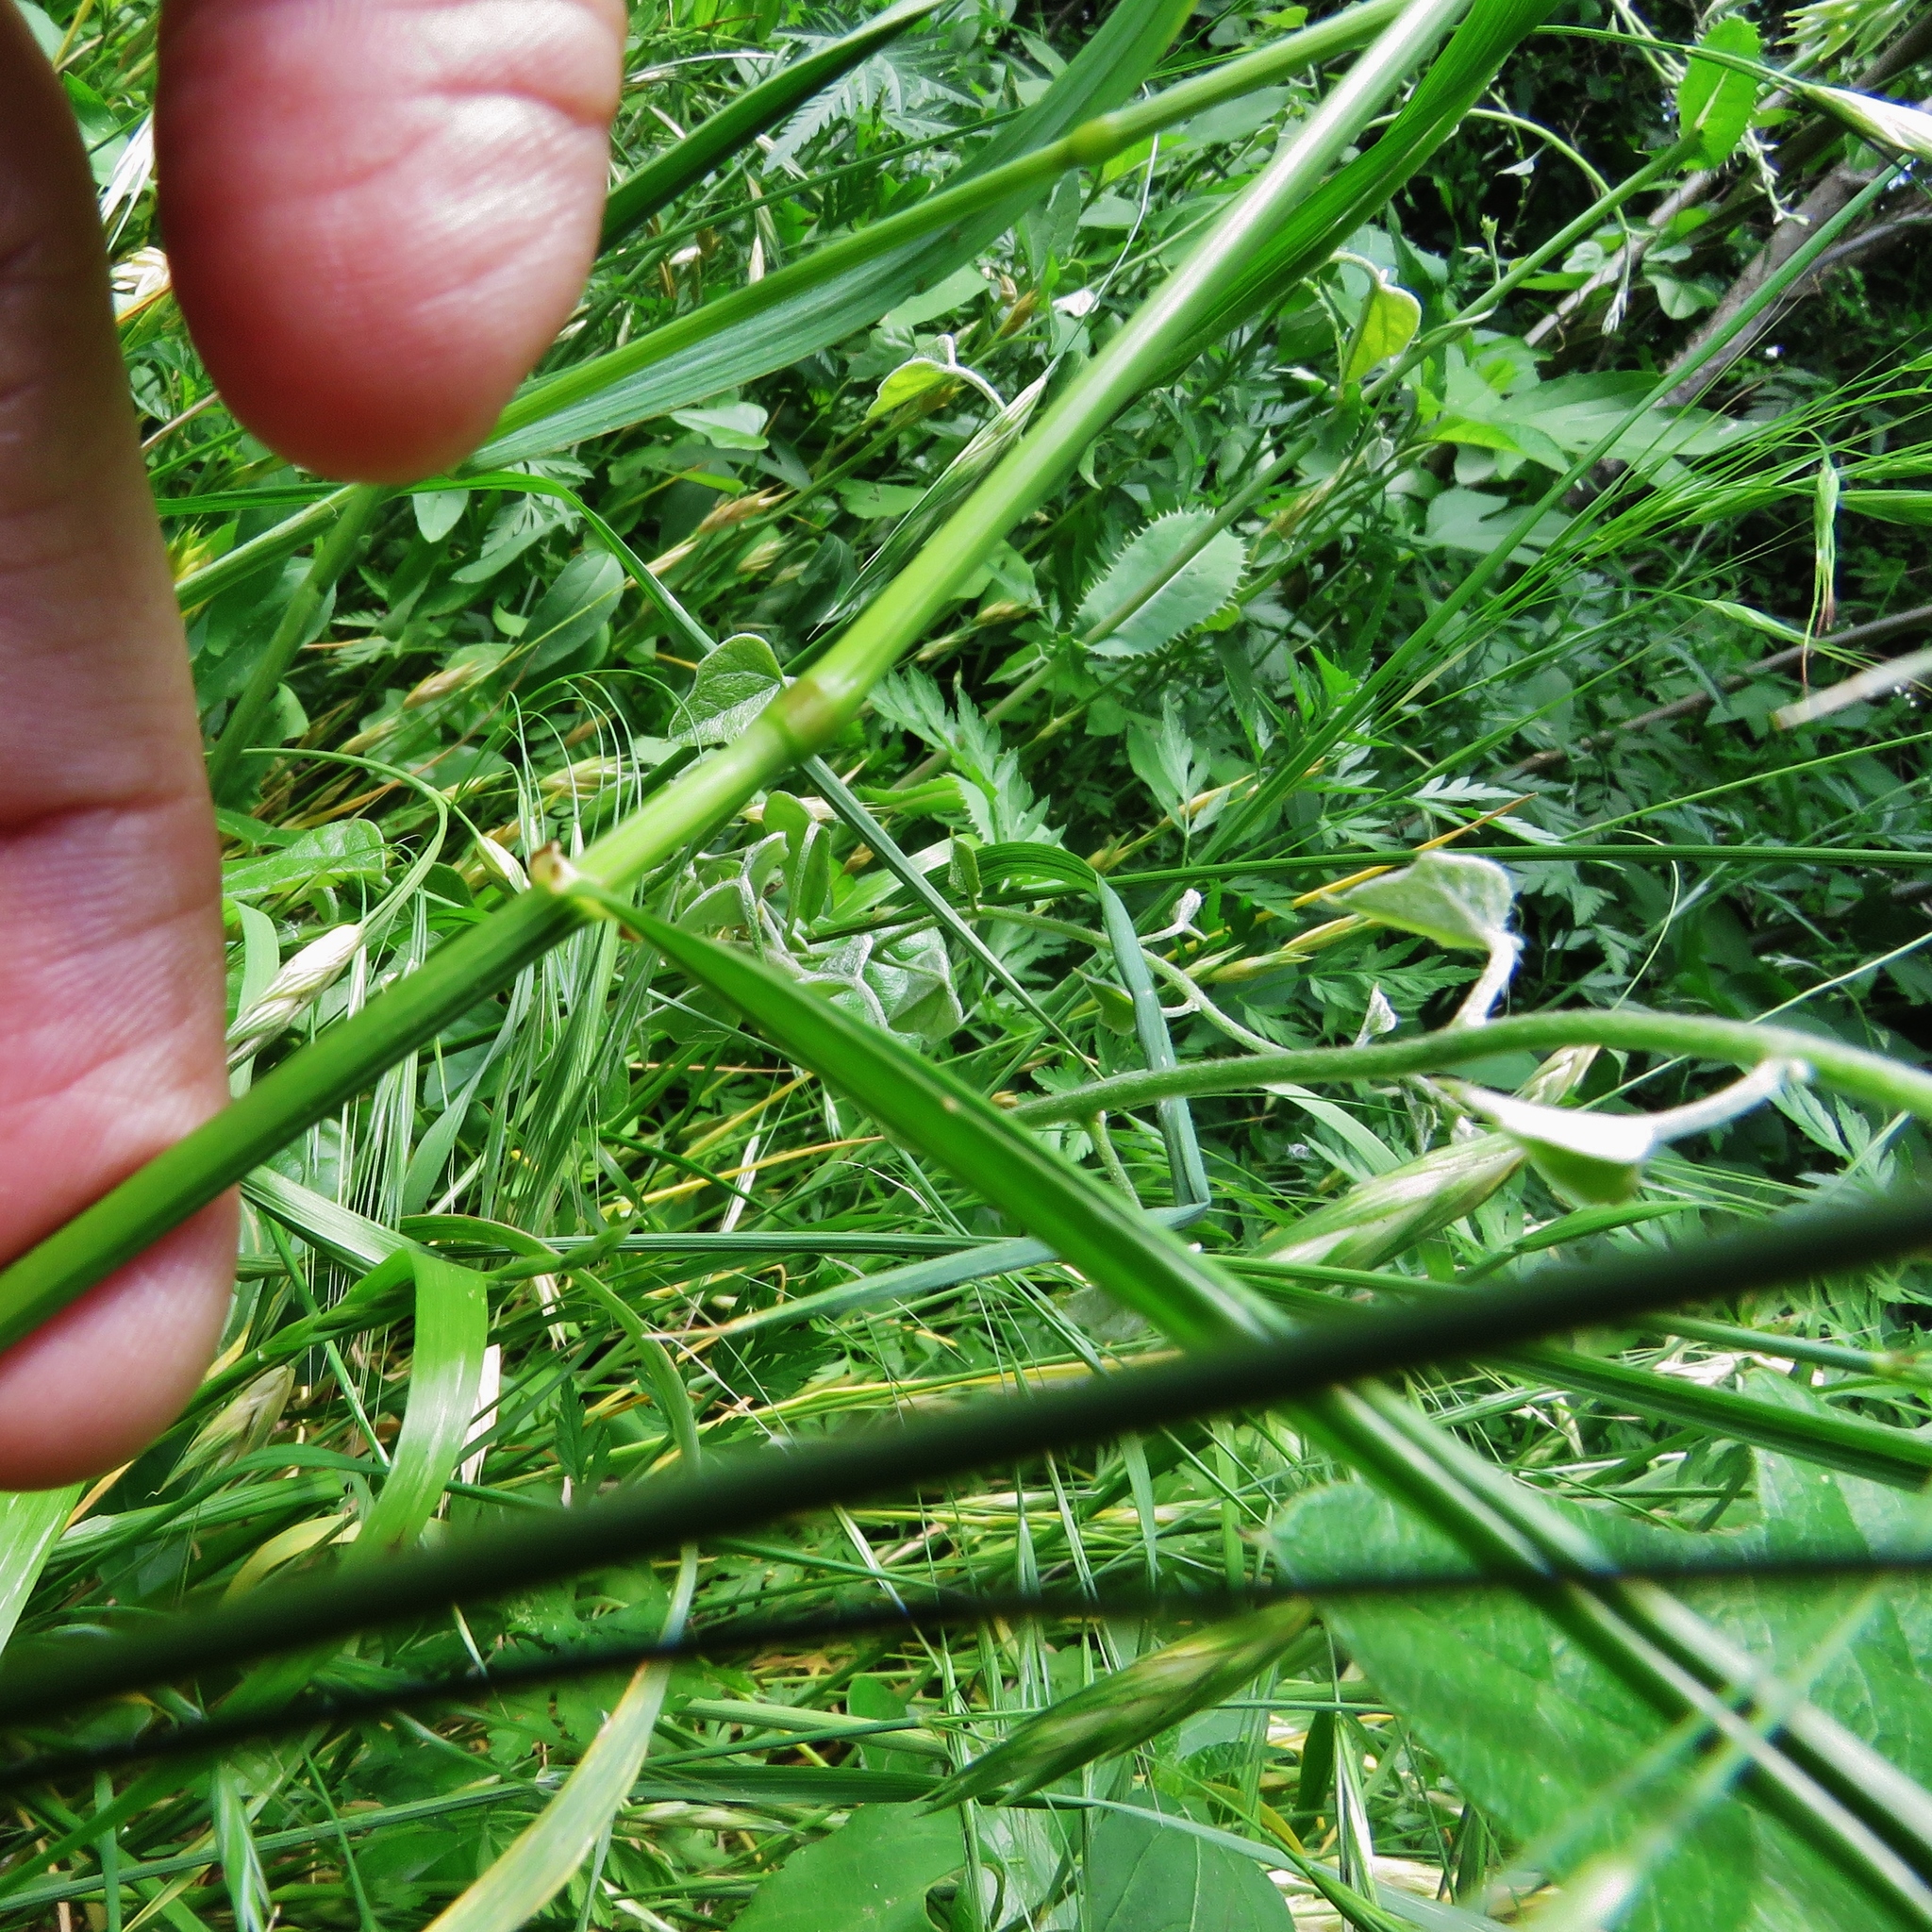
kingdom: Plantae
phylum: Tracheophyta
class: Liliopsida
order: Poales
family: Poaceae
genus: Bromus
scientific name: Bromus catharticus
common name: Rescuegrass
